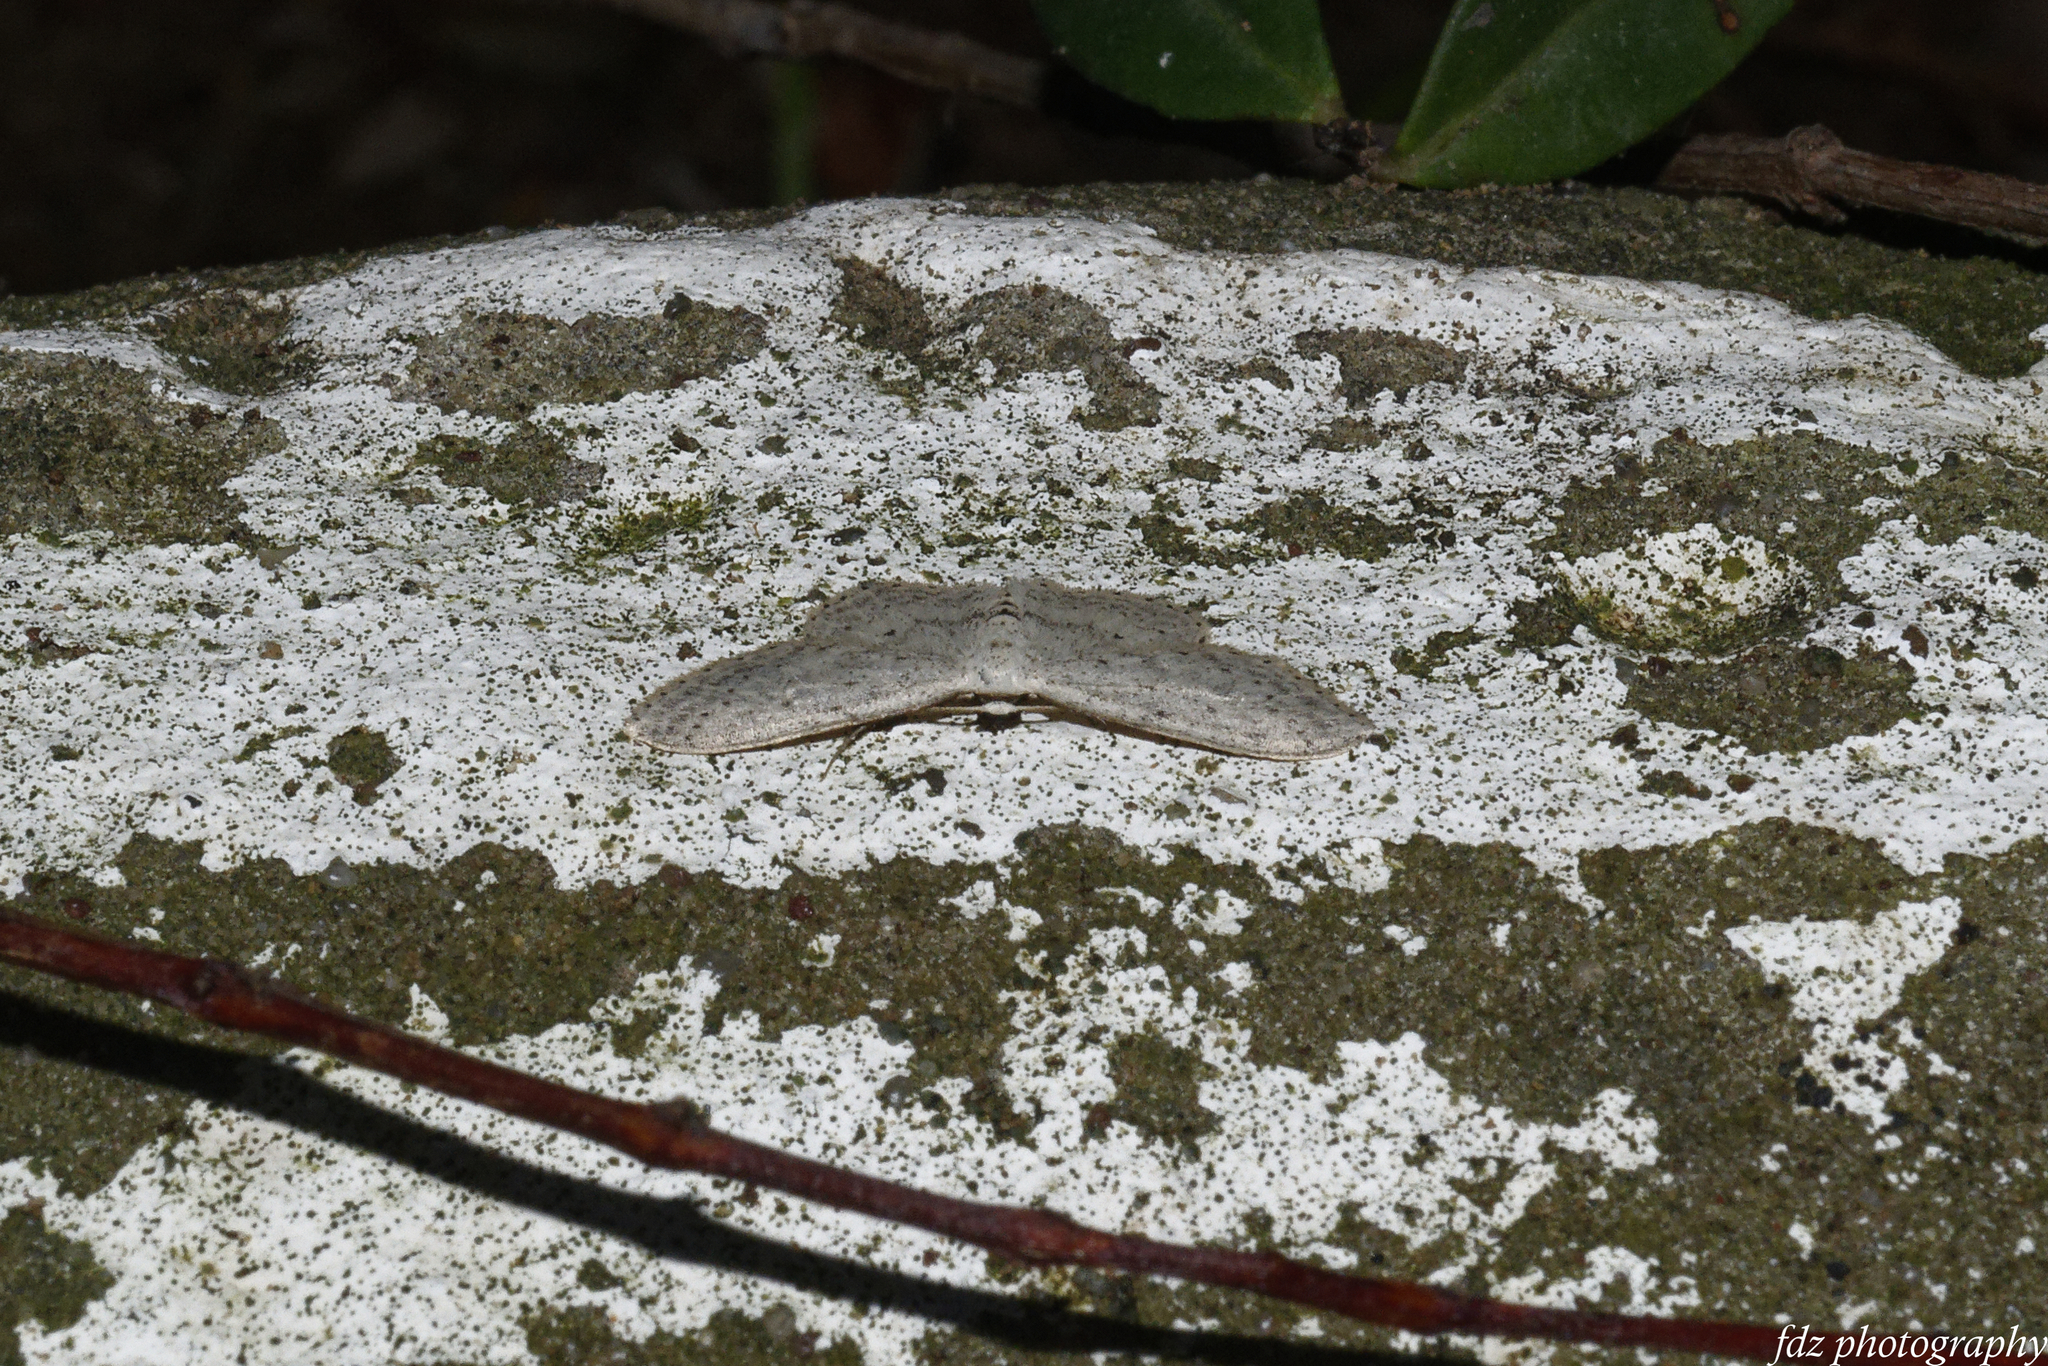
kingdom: Animalia
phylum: Arthropoda
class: Insecta
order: Lepidoptera
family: Geometridae
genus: Idaea
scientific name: Idaea seriata
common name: Small dusty wave
